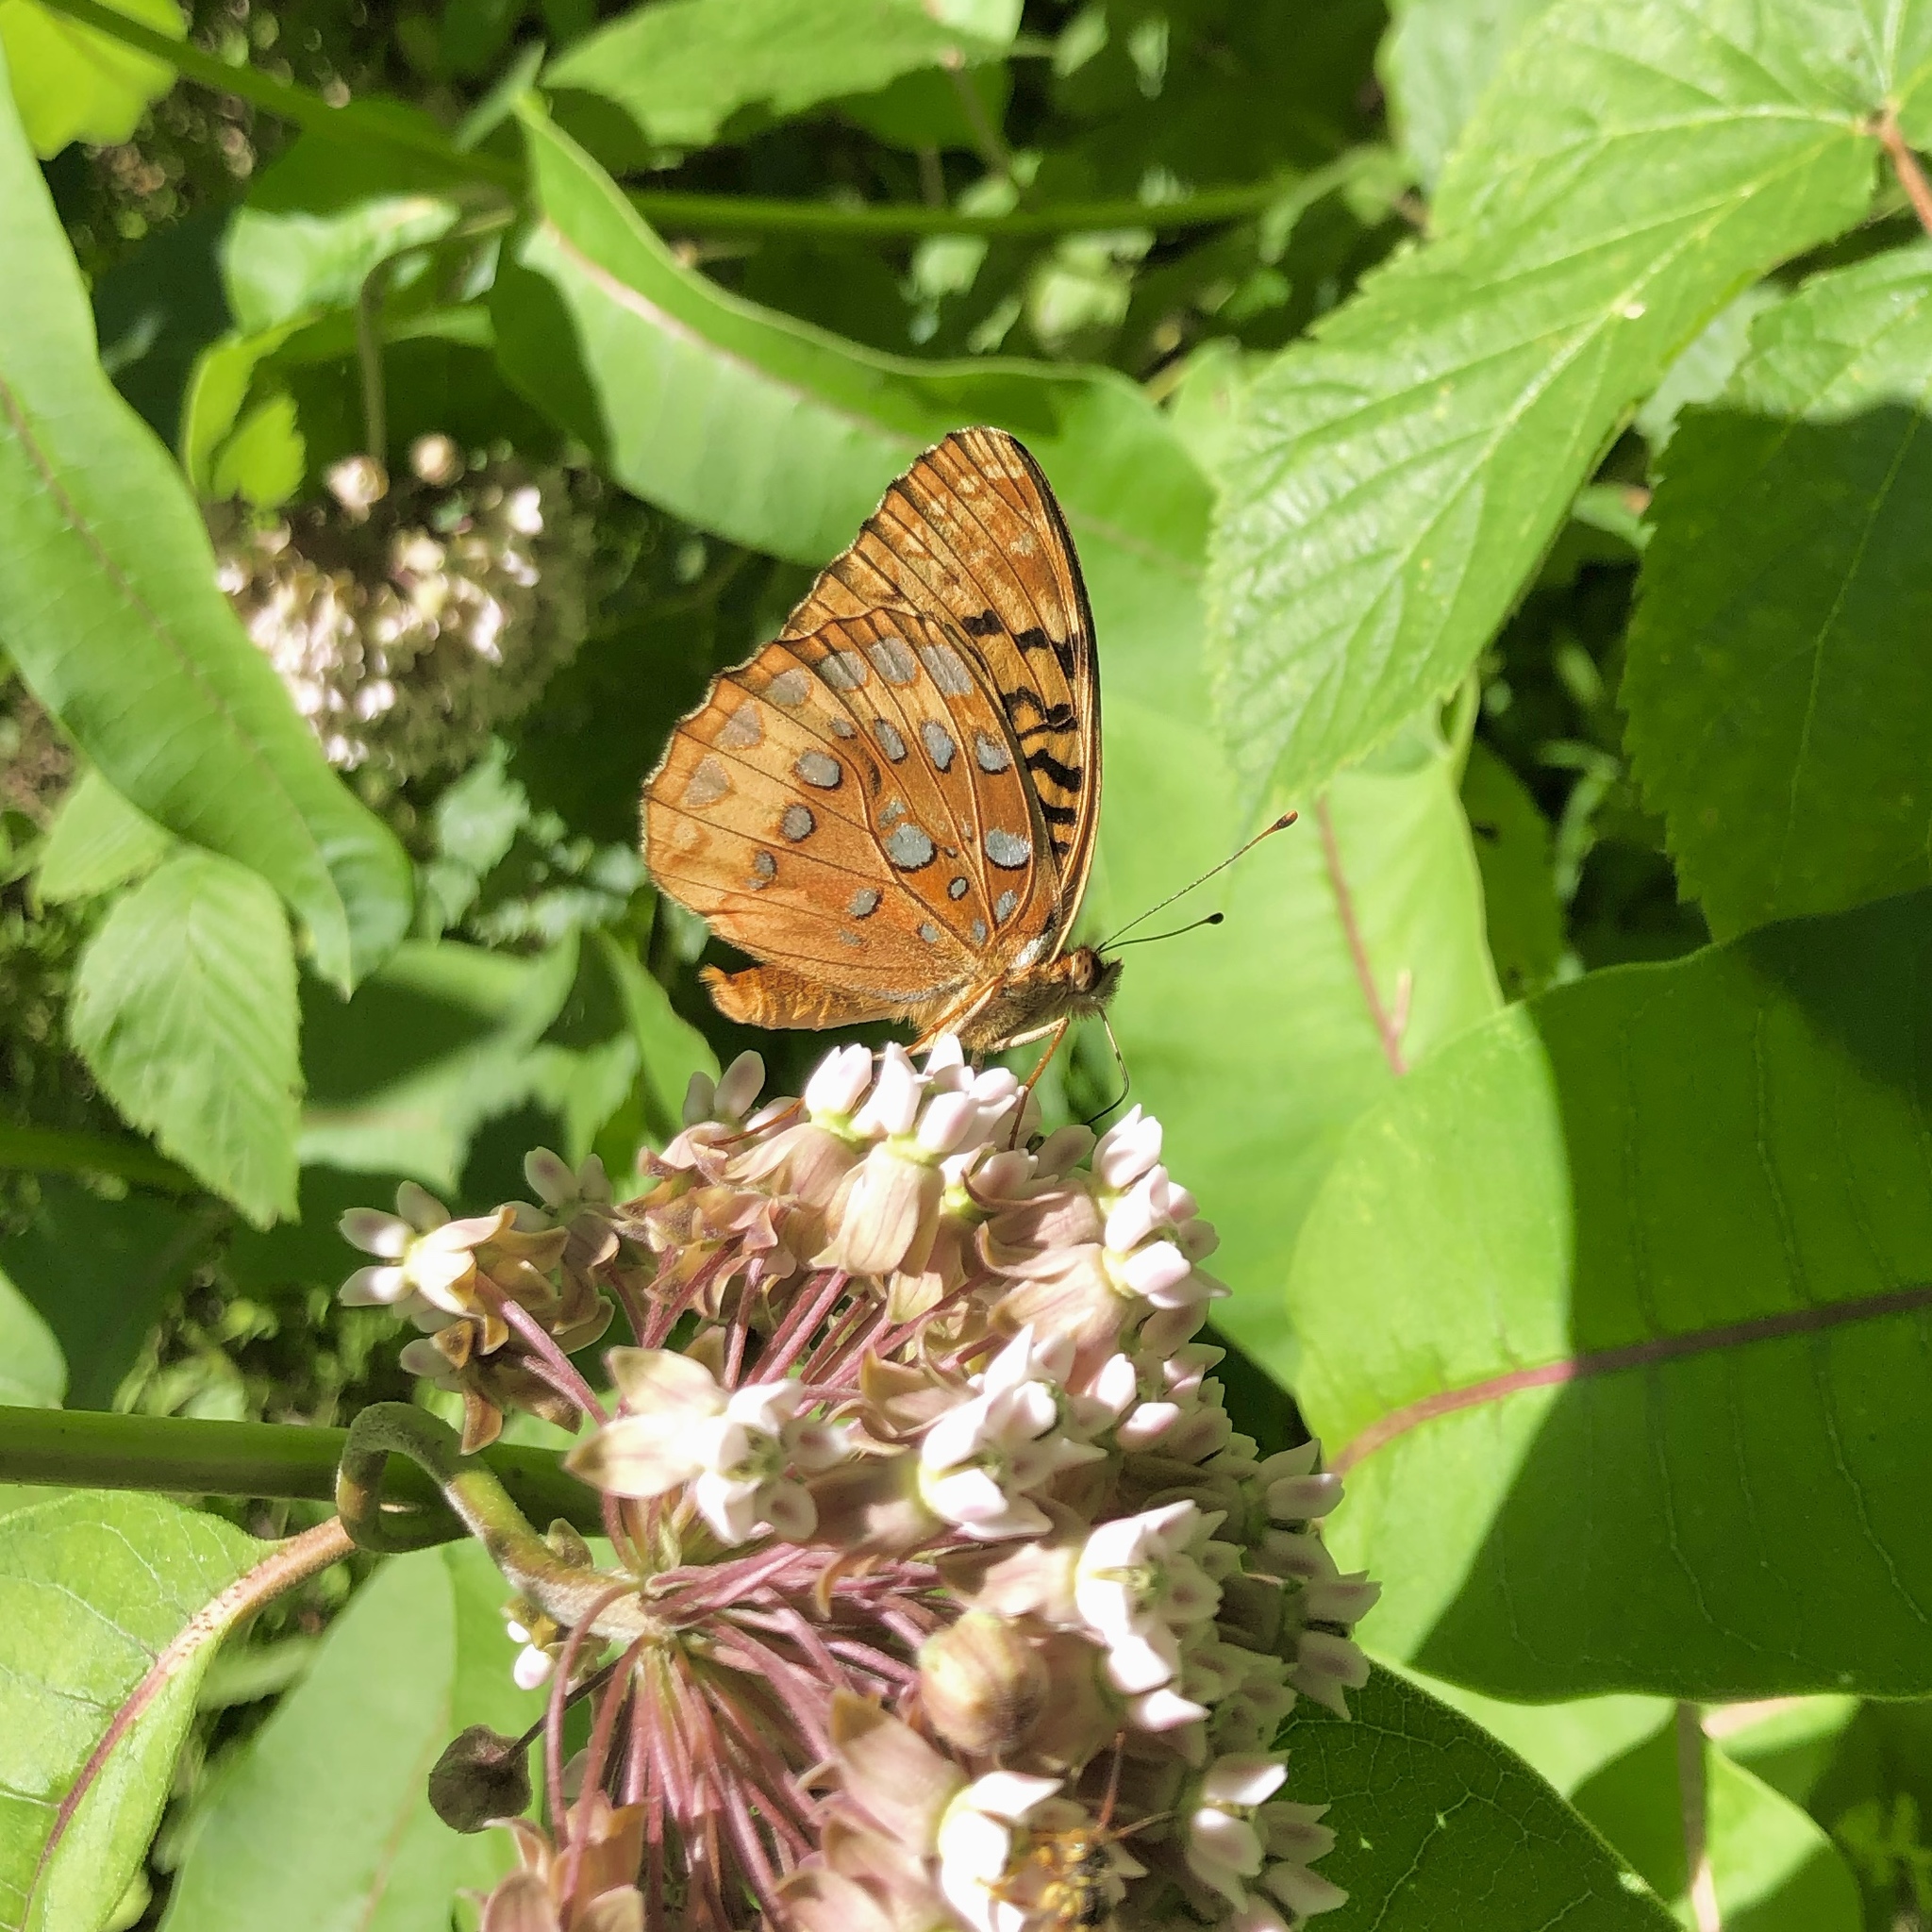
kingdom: Animalia
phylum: Arthropoda
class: Insecta
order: Lepidoptera
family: Nymphalidae
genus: Speyeria
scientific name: Speyeria cybele
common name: Great spangled fritillary
